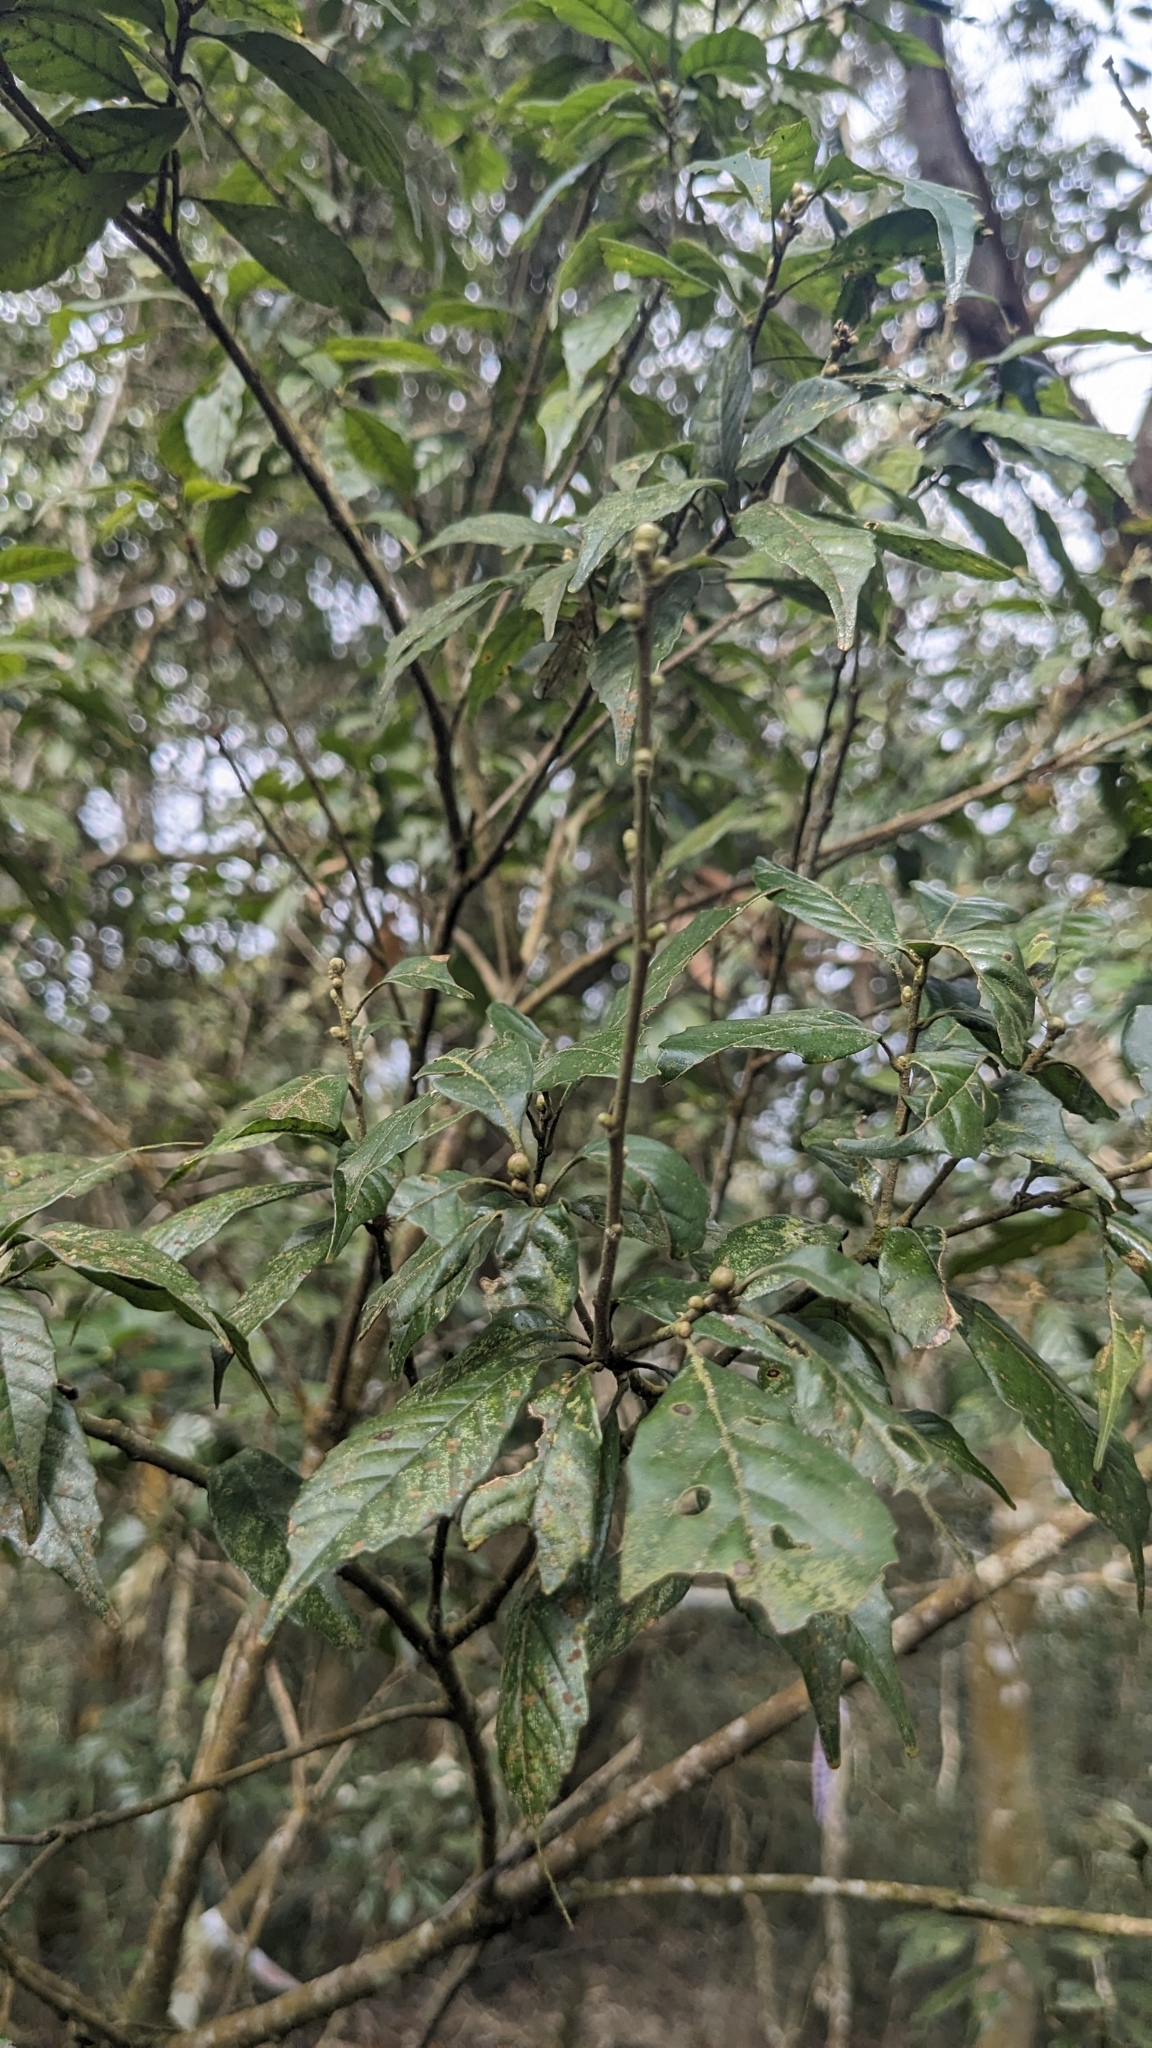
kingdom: Plantae
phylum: Tracheophyta
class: Magnoliopsida
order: Fagales
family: Fagaceae
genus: Lithocarpus
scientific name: Lithocarpus konishii
